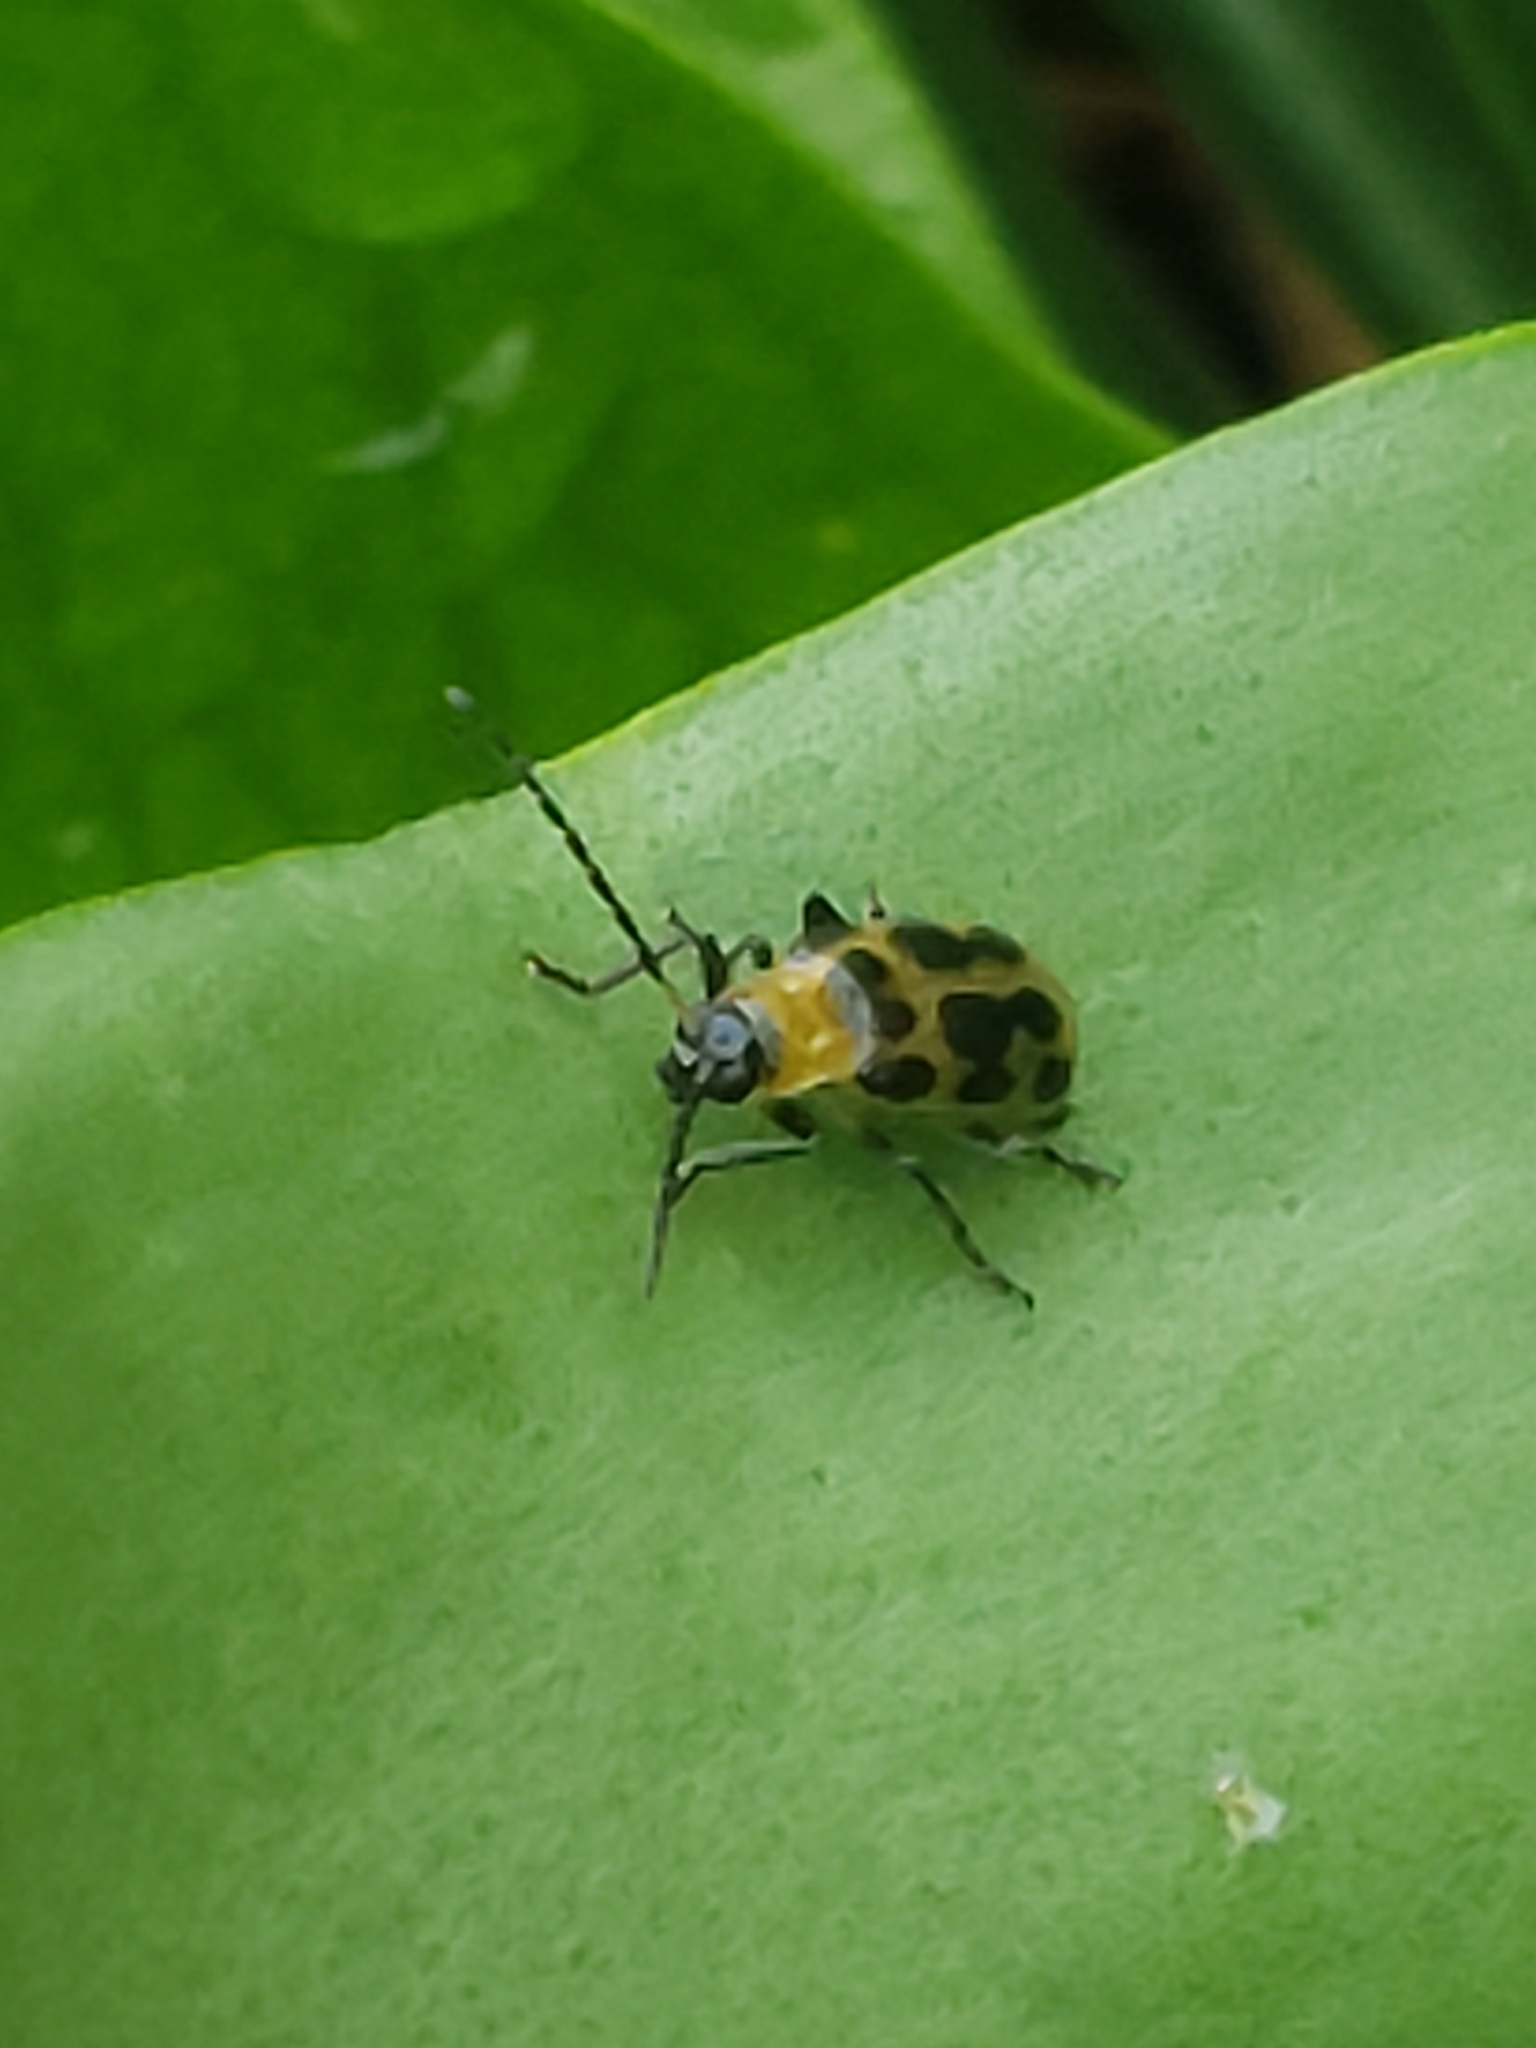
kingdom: Animalia
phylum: Arthropoda
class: Insecta
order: Coleoptera
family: Chrysomelidae
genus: Diabrotica
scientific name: Diabrotica undecimpunctata
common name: Spotted cucumber beetle
